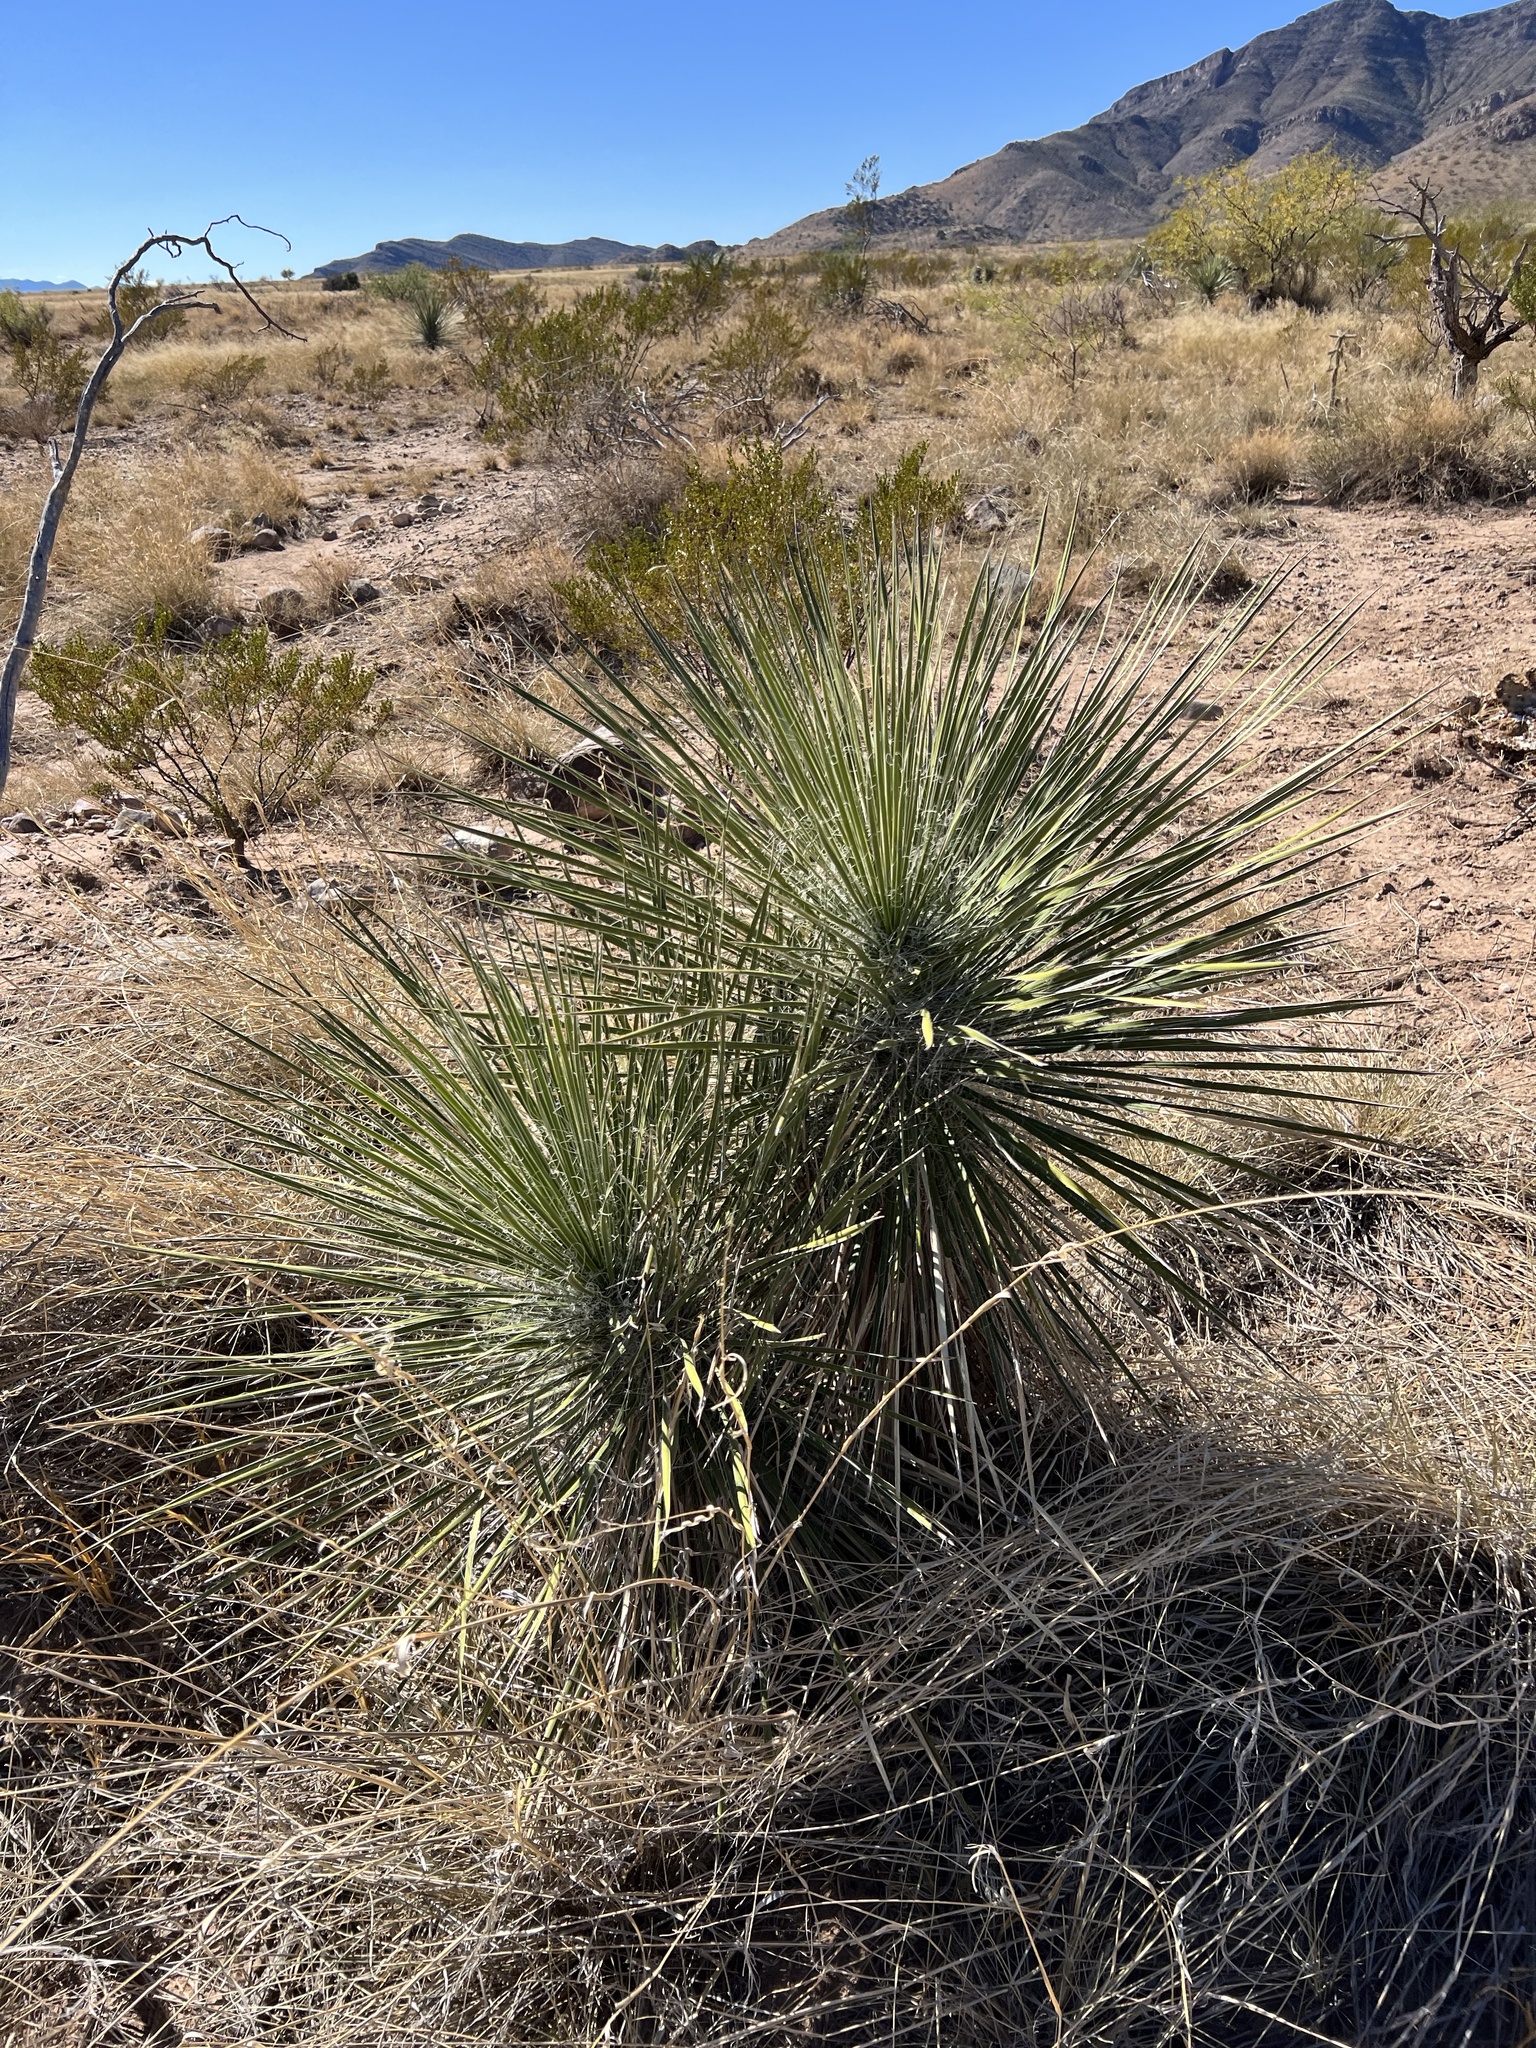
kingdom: Plantae
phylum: Tracheophyta
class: Liliopsida
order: Asparagales
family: Asparagaceae
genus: Yucca
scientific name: Yucca elata
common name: Palmella
